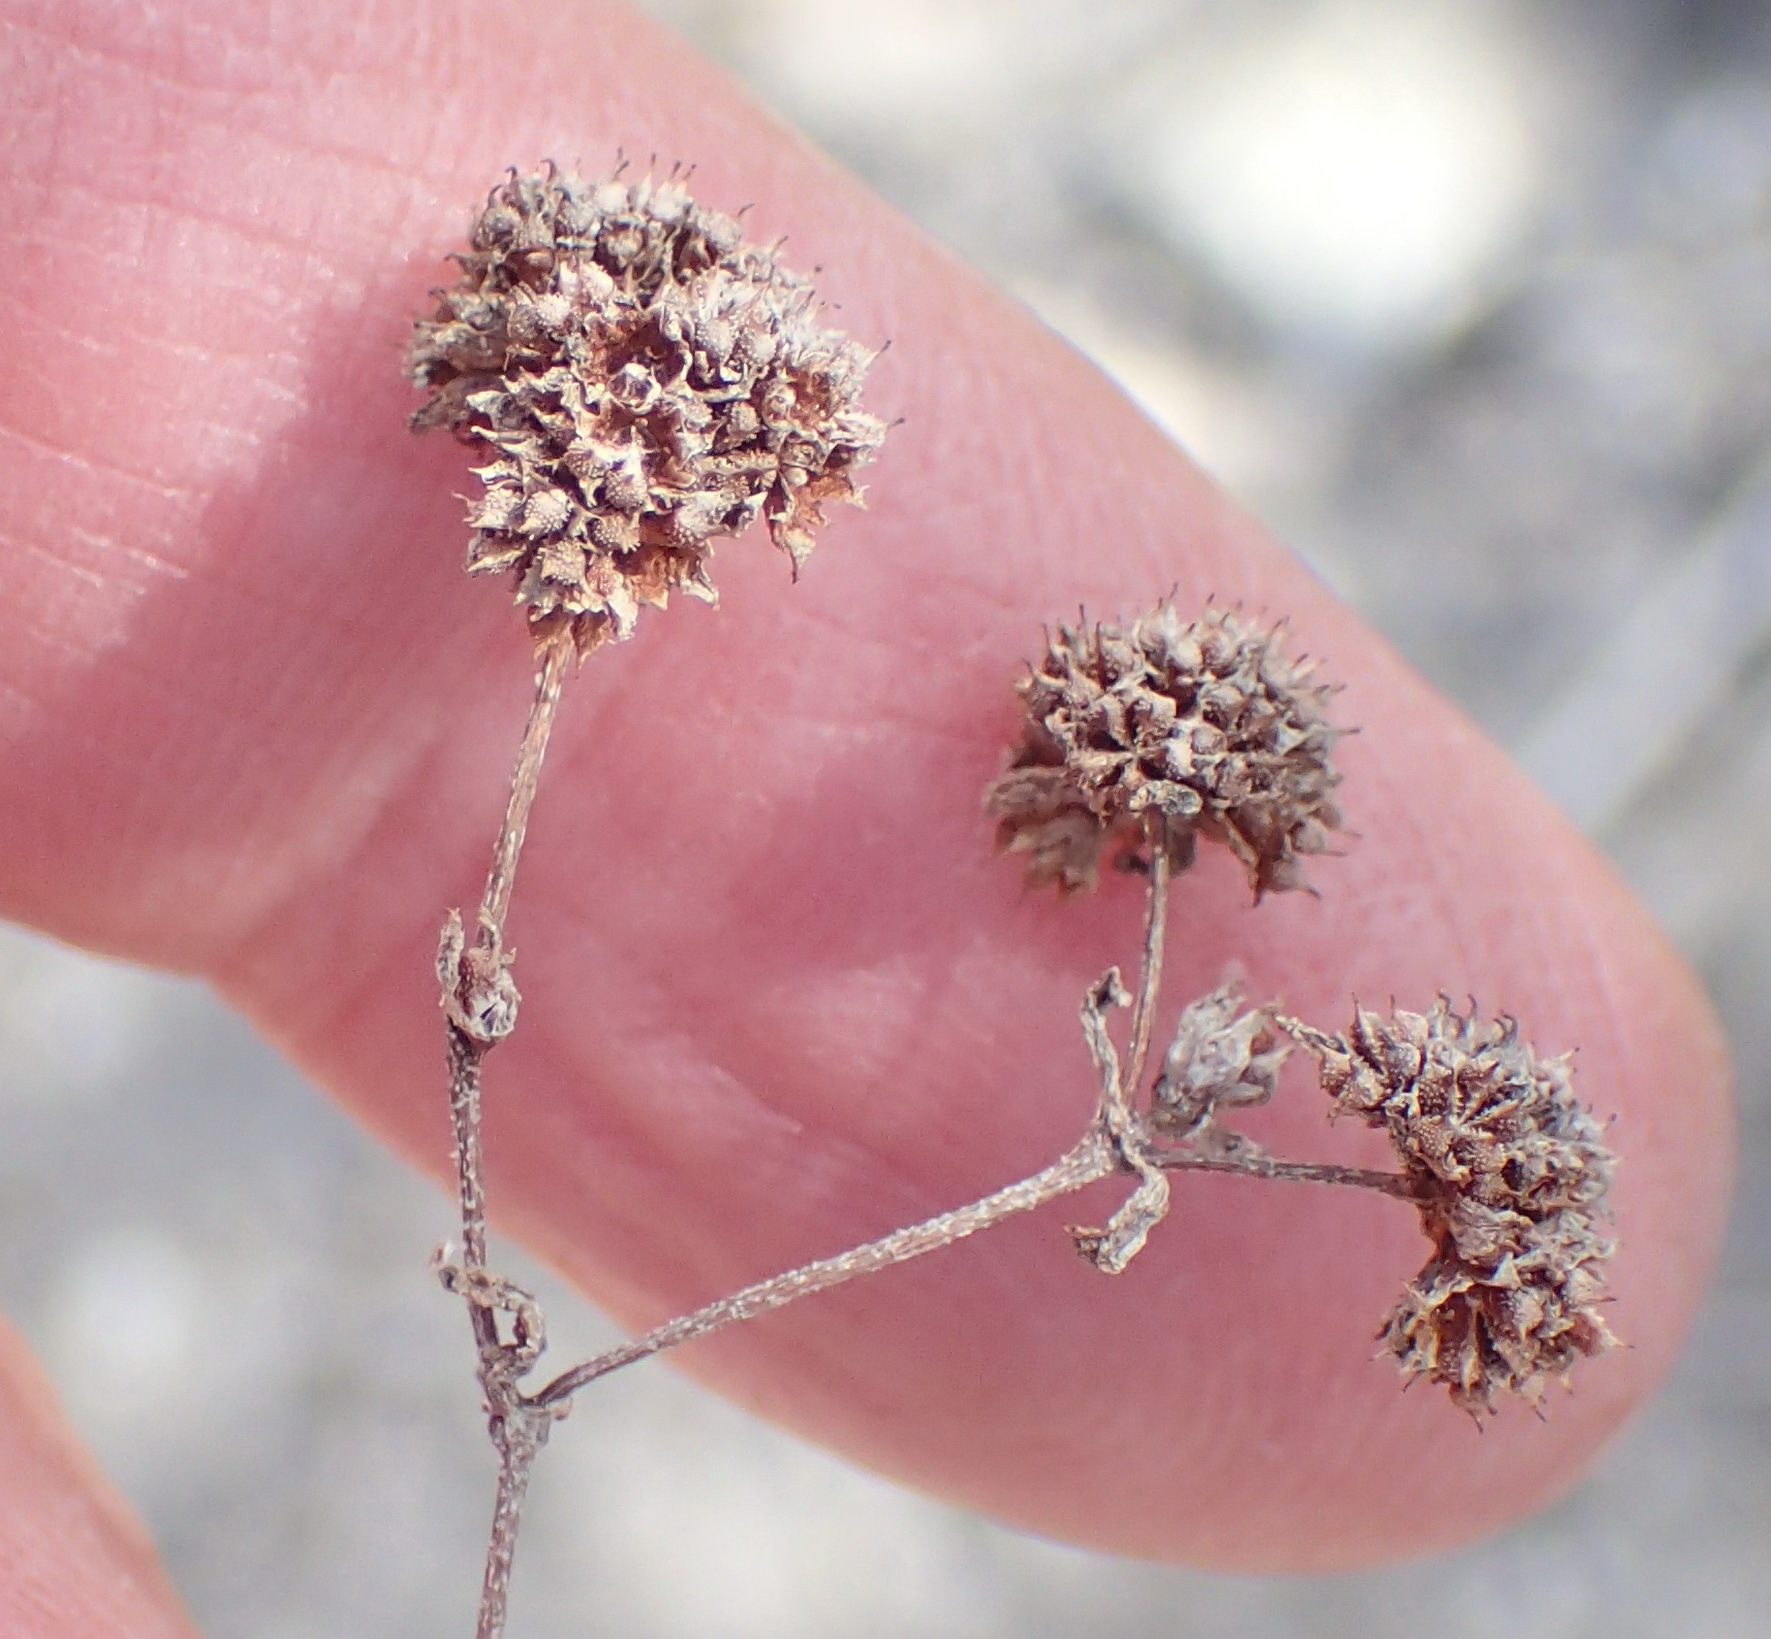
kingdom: Plantae
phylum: Tracheophyta
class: Magnoliopsida
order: Saxifragales
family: Crassulaceae
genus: Crassula
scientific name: Crassula glomerata
